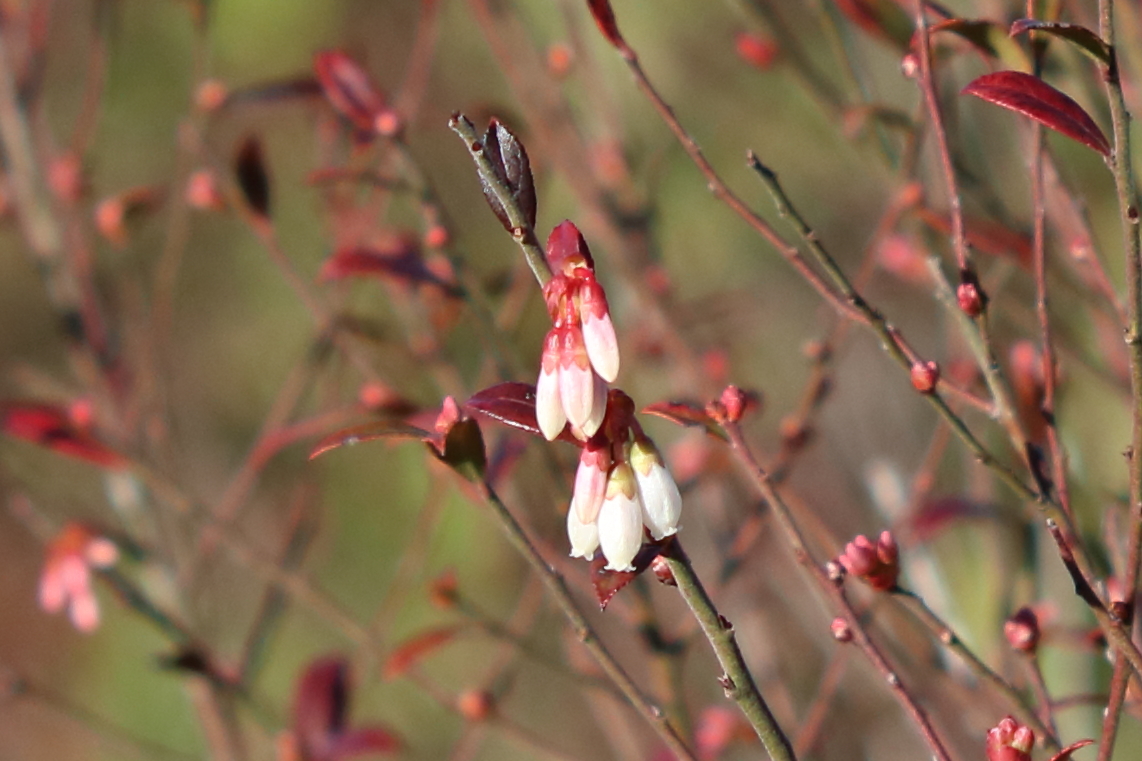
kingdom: Plantae
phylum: Tracheophyta
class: Magnoliopsida
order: Ericales
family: Ericaceae
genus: Vaccinium
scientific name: Vaccinium corymbosum
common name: Blueberry
